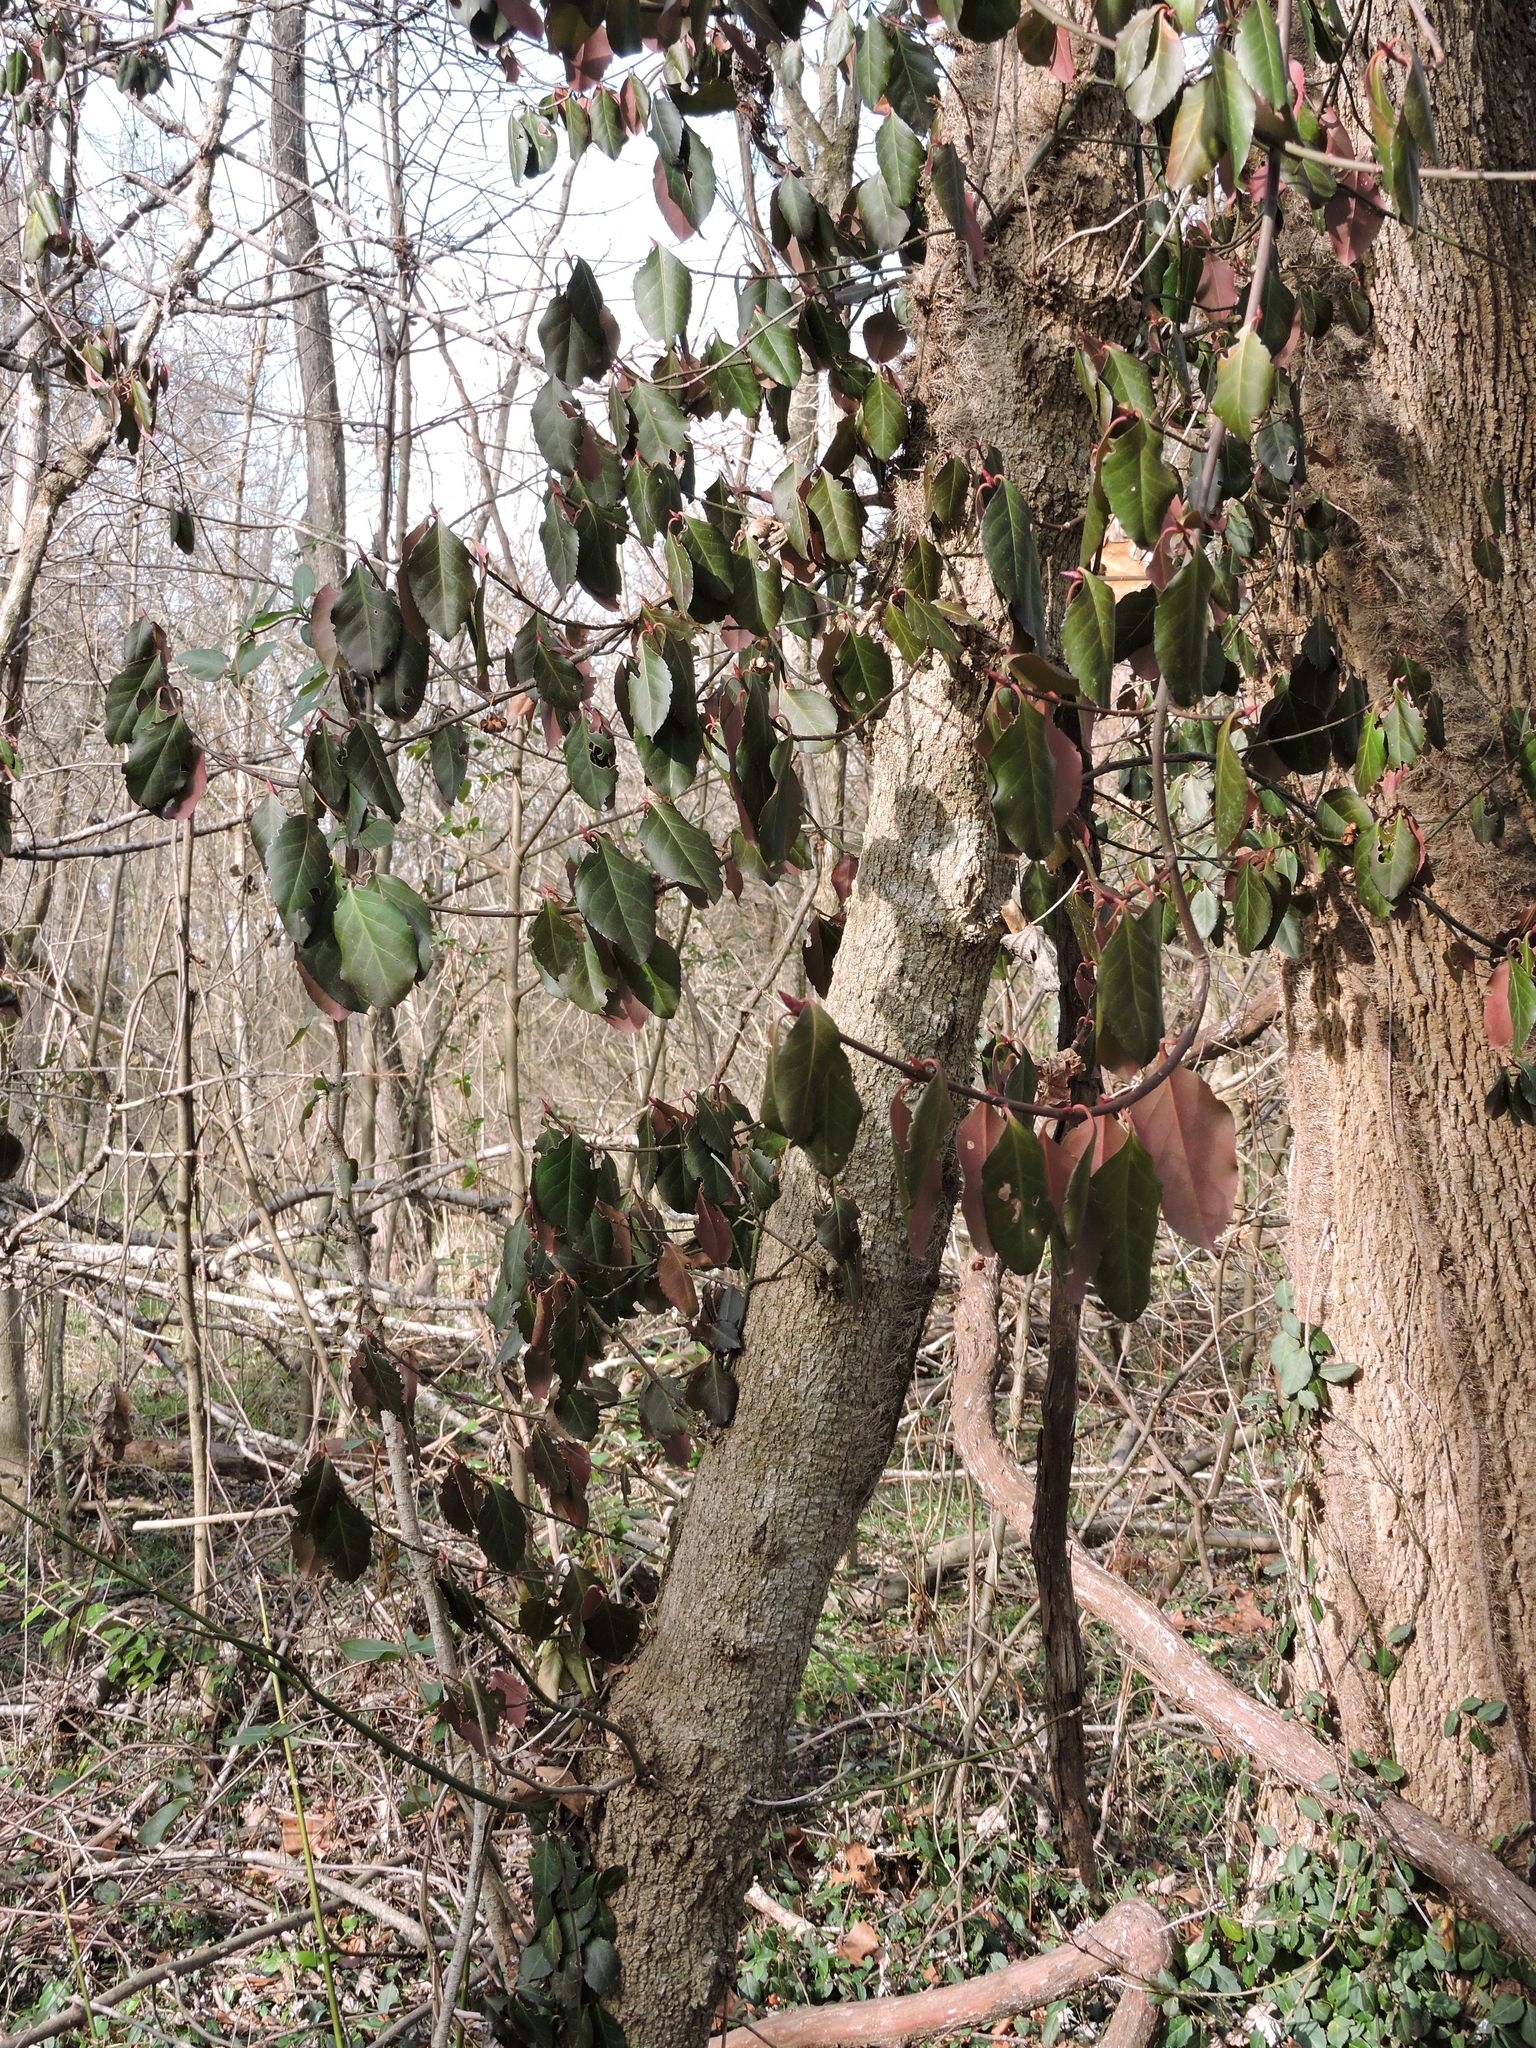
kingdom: Plantae
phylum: Tracheophyta
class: Magnoliopsida
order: Celastrales
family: Celastraceae
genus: Euonymus
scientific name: Euonymus fortunei
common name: Climbing euonymus
